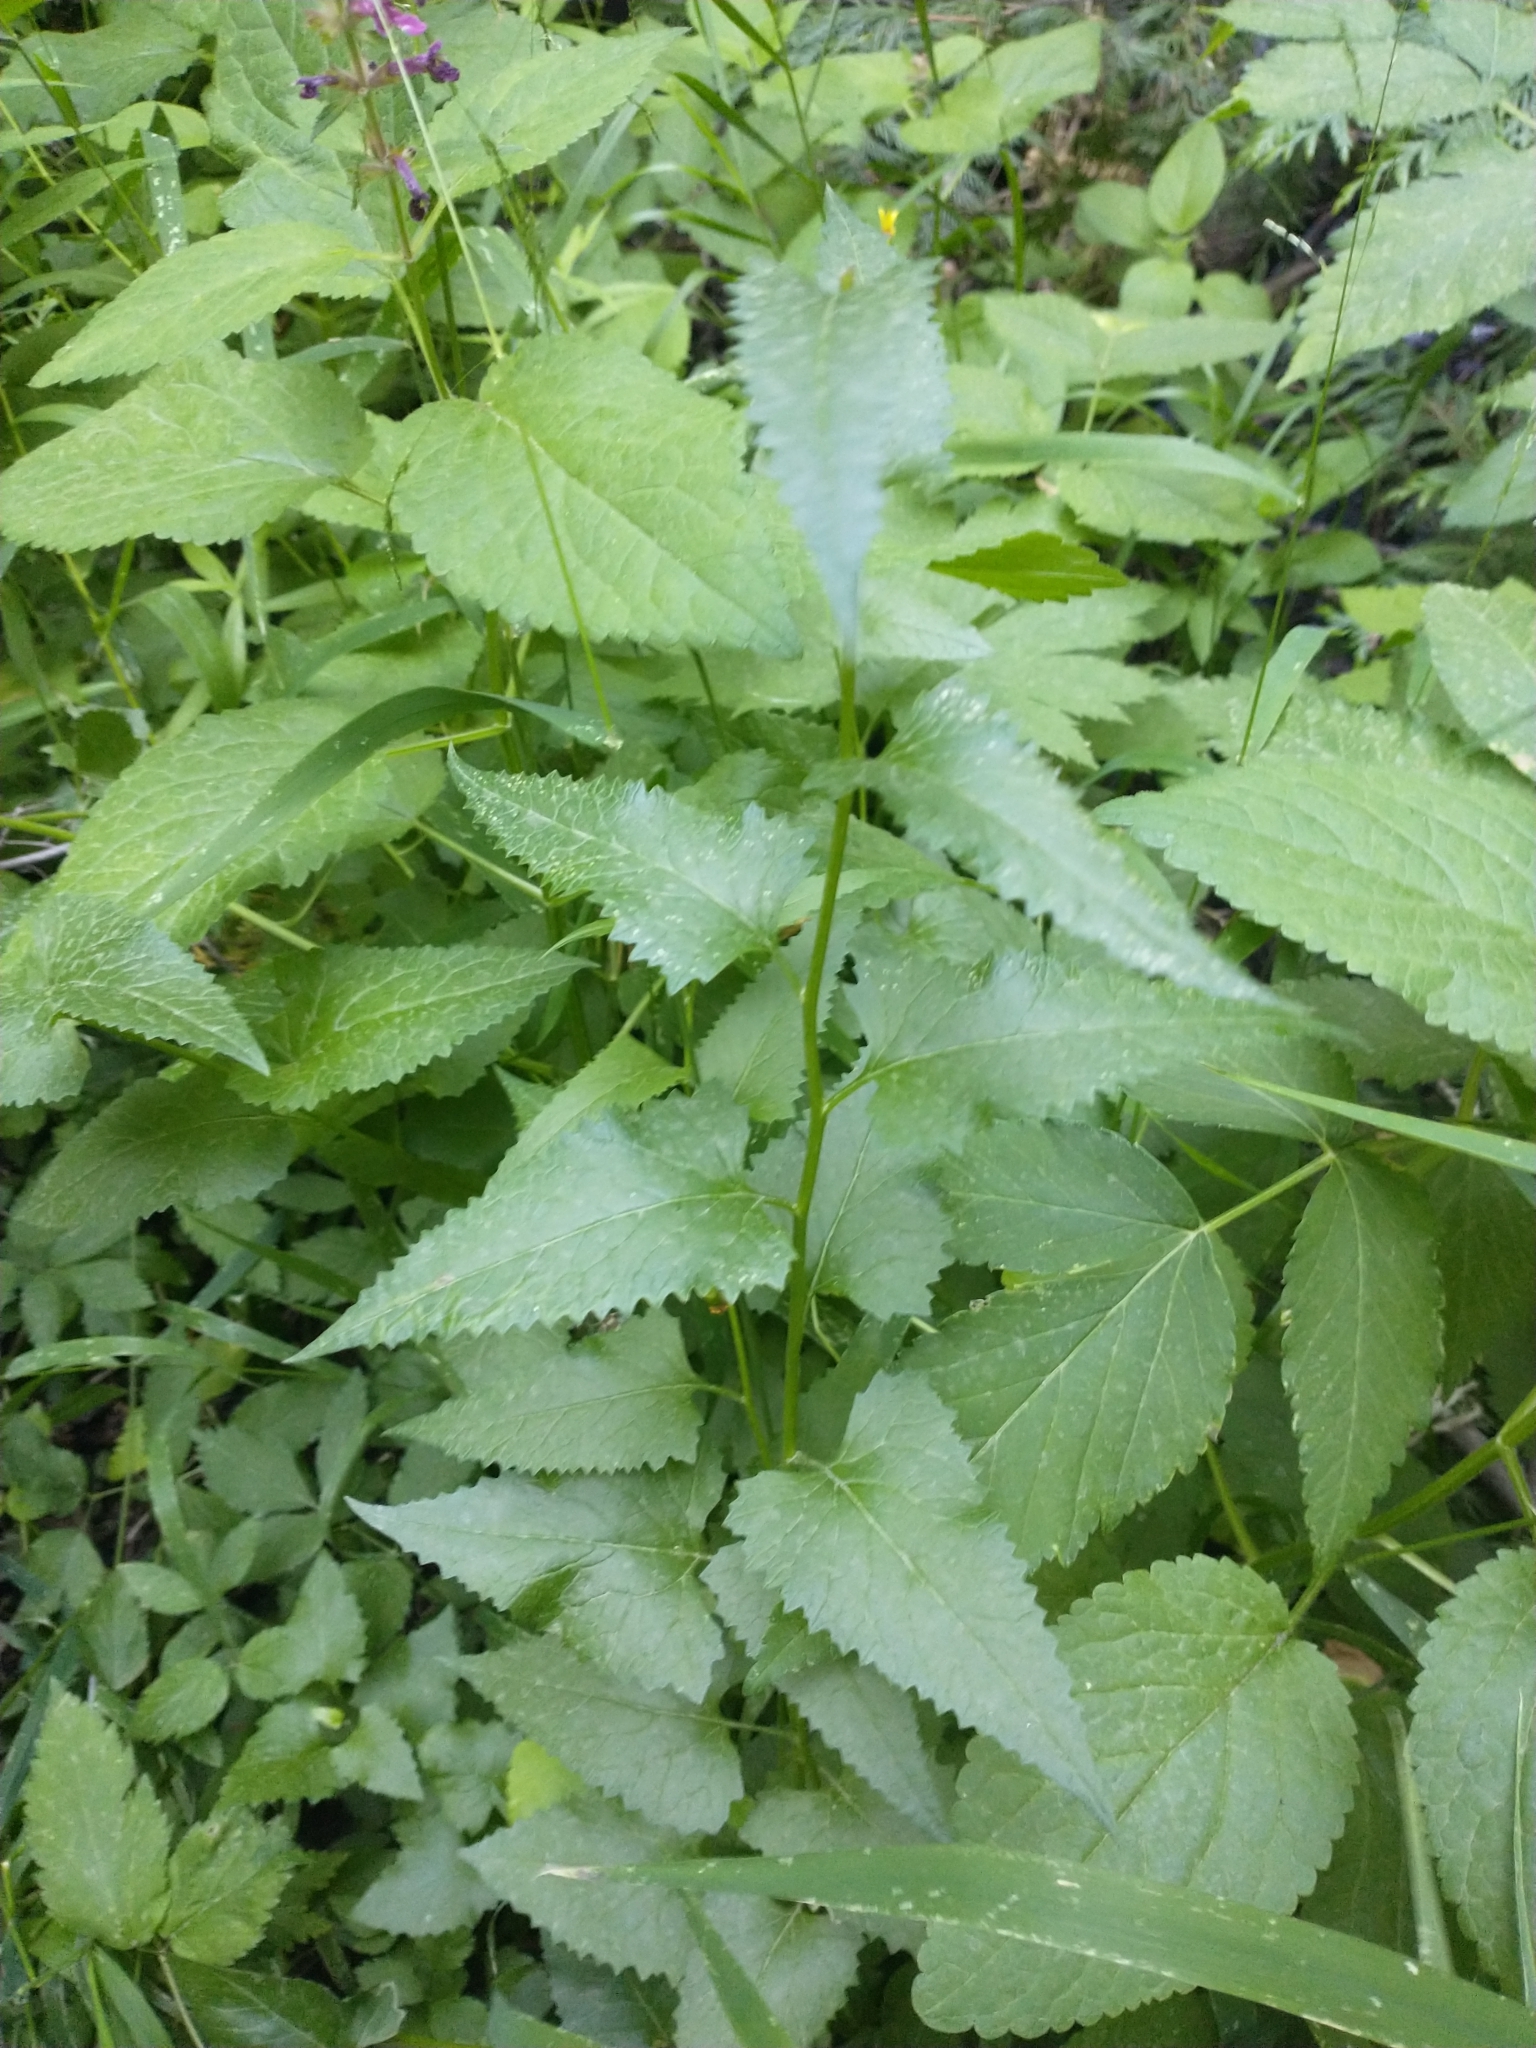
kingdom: Plantae
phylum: Tracheophyta
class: Magnoliopsida
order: Asterales
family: Asteraceae
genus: Senecio
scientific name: Senecio triangularis
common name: Arrowleaf butterweed
